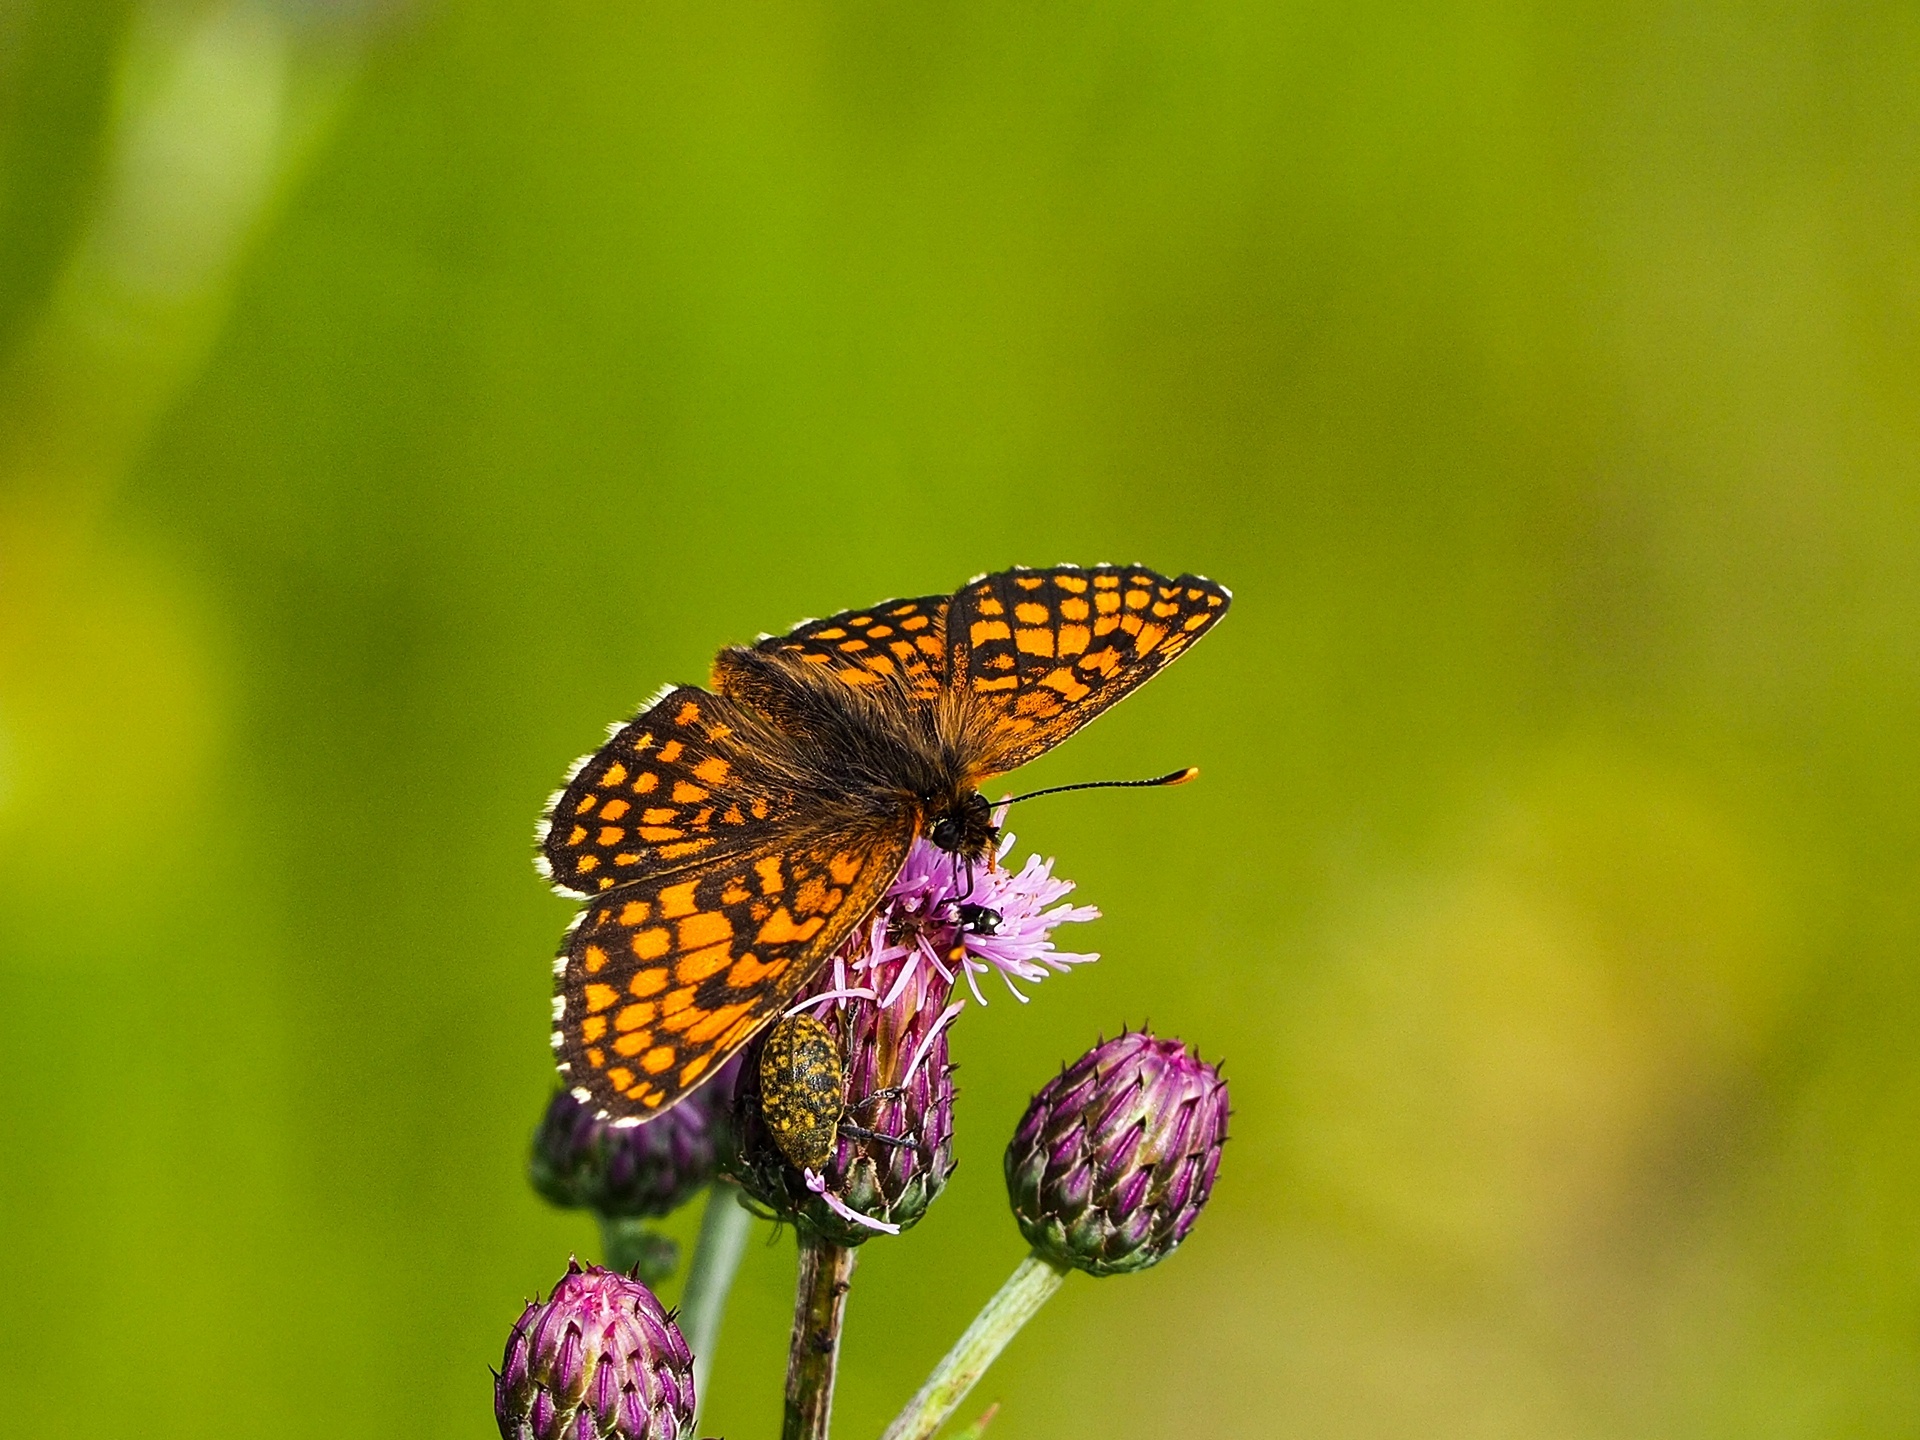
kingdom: Animalia
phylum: Arthropoda
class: Insecta
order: Lepidoptera
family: Nymphalidae
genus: Melitaea
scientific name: Melitaea athalia
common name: Heath fritillary
